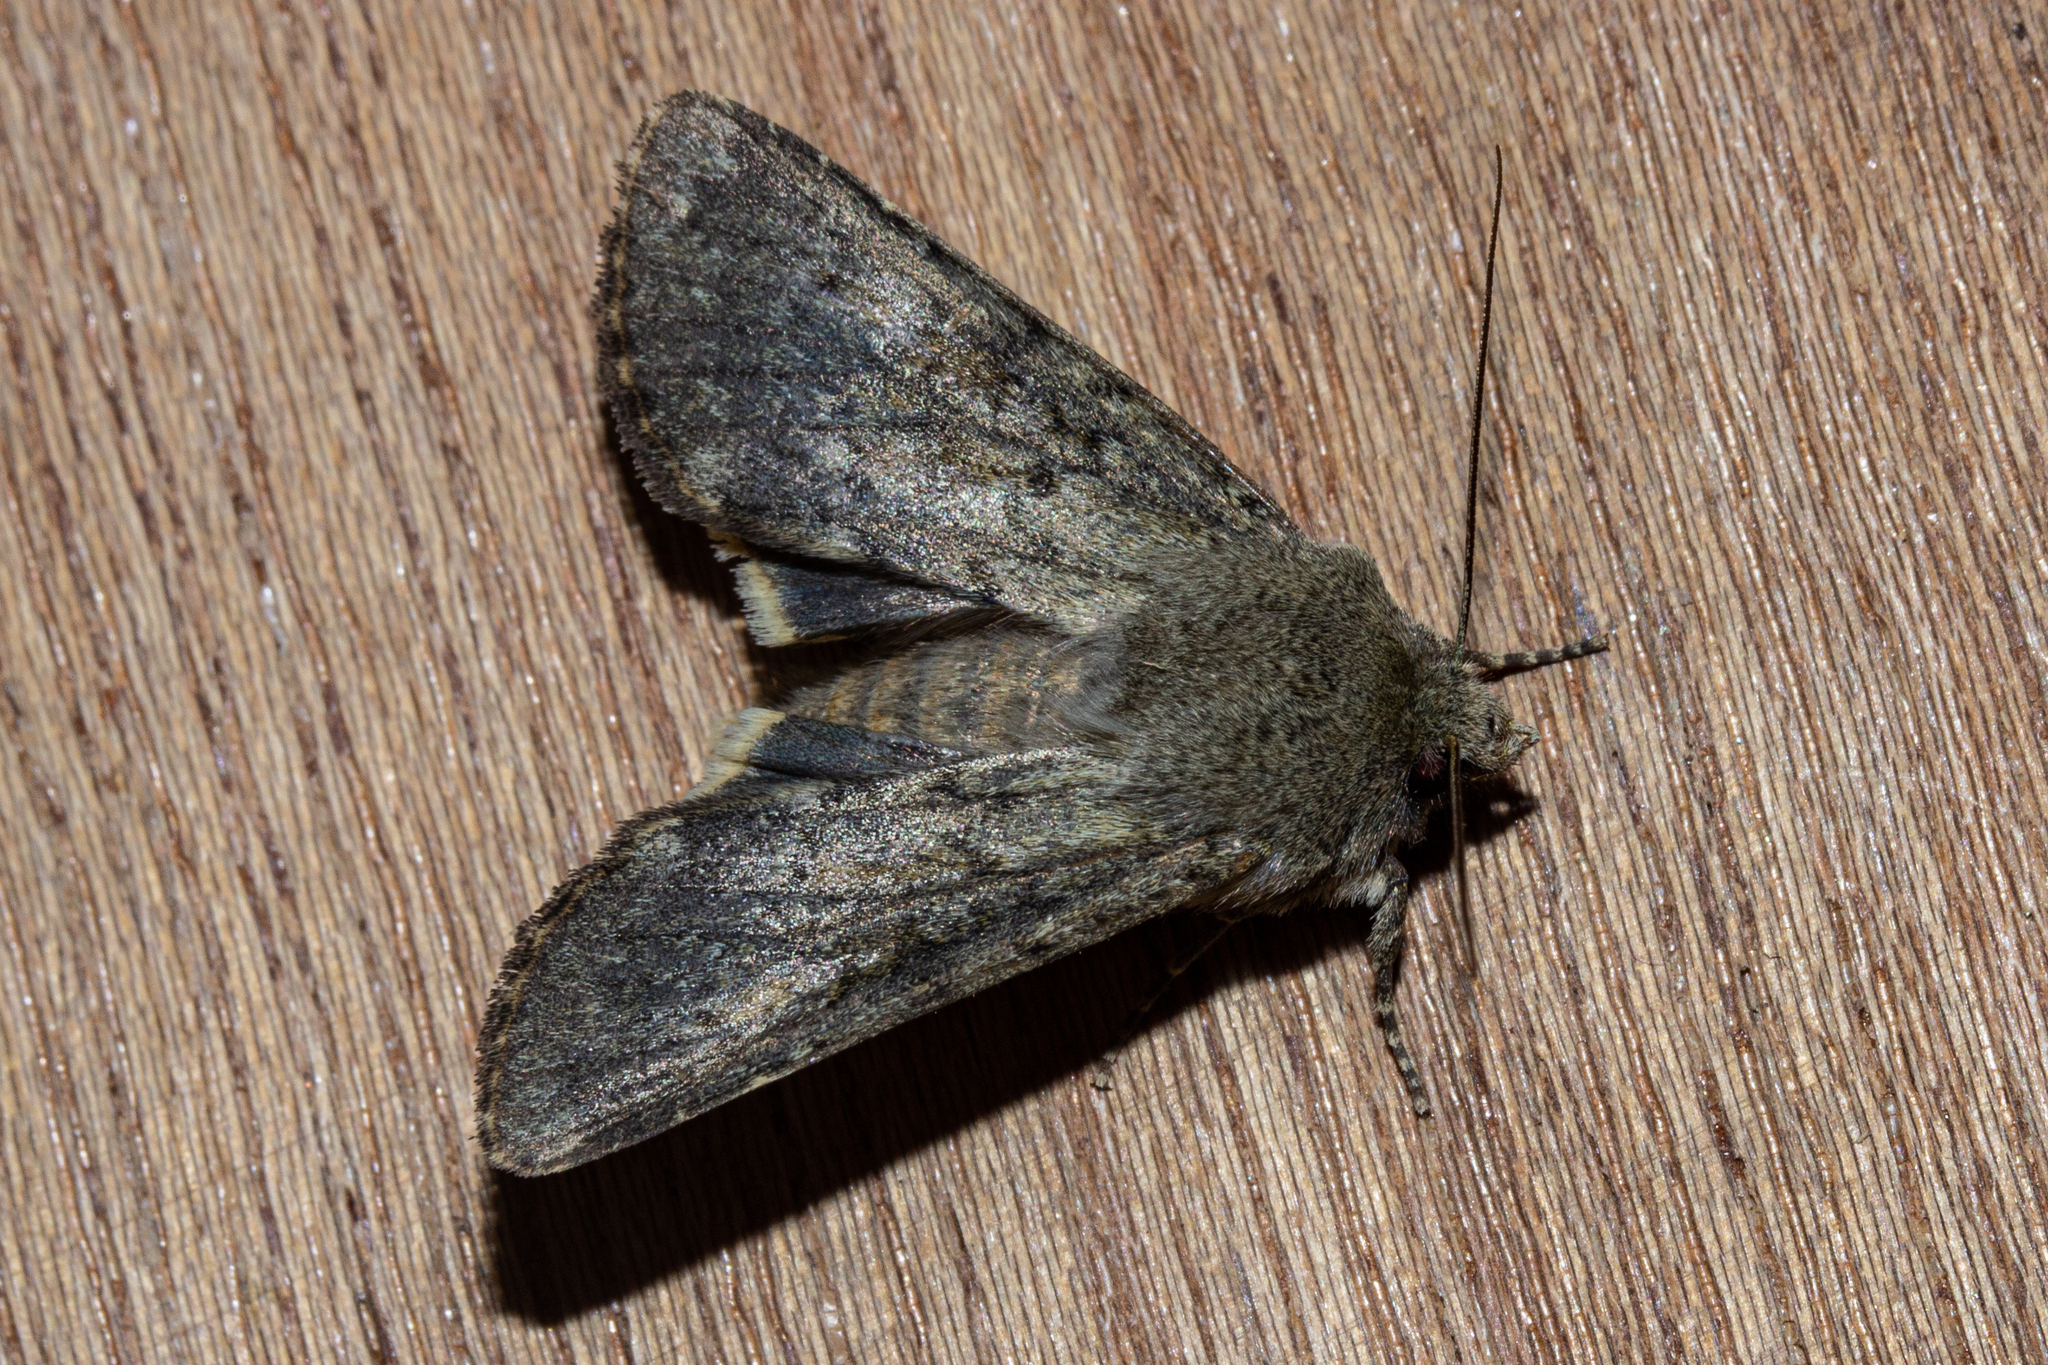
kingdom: Animalia
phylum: Arthropoda
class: Insecta
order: Lepidoptera
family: Noctuidae
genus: Ichneutica
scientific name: Ichneutica moderata
